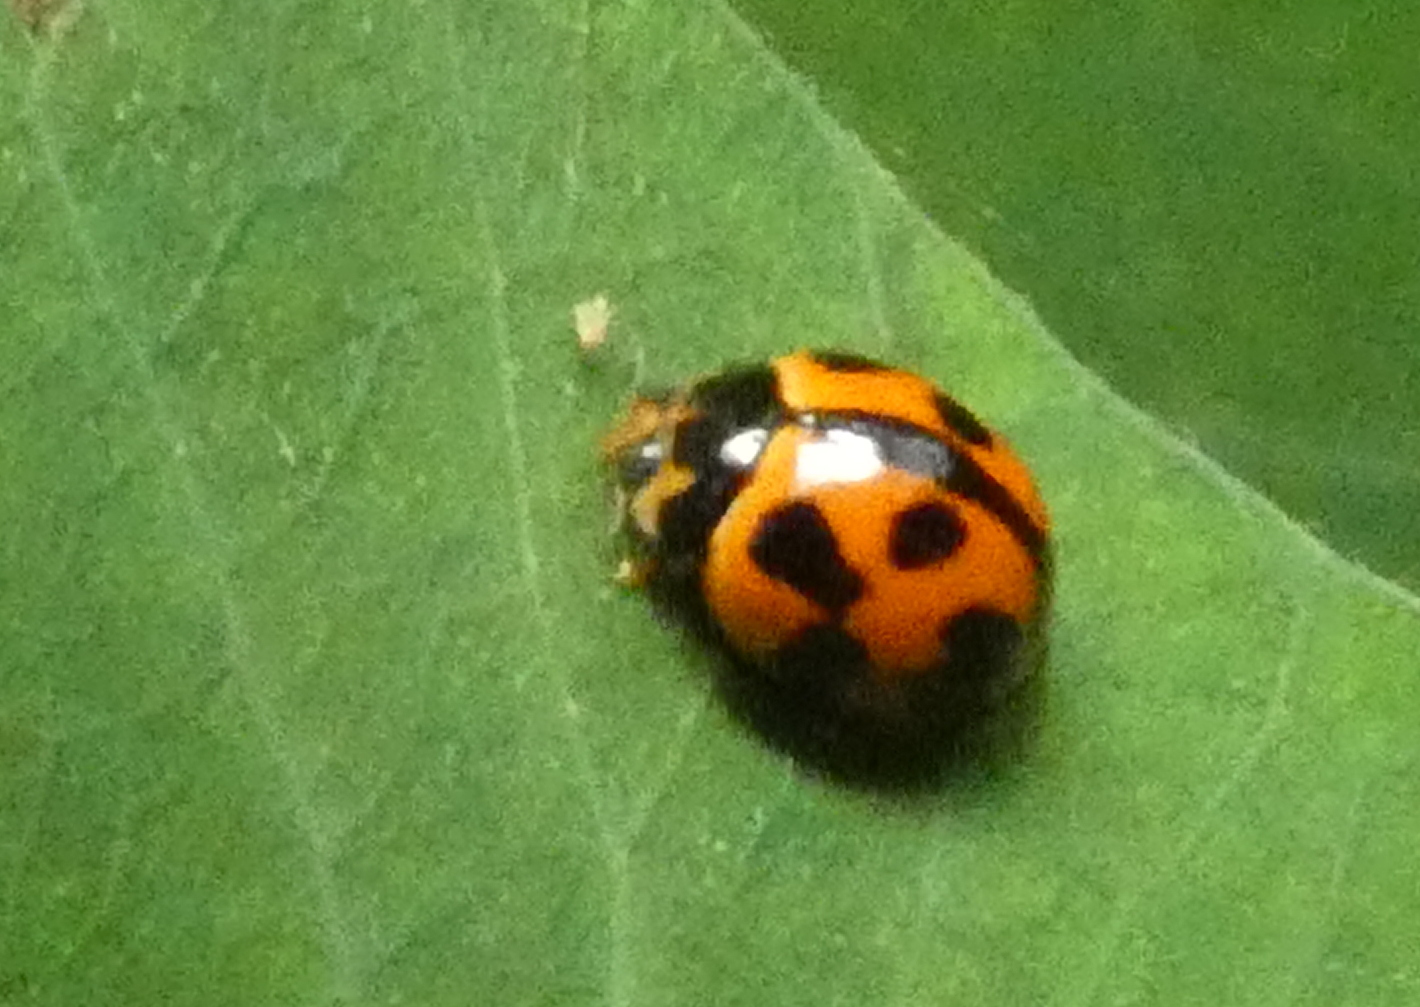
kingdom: Animalia
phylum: Arthropoda
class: Insecta
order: Coleoptera
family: Coccinellidae
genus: Coelophora
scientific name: Coelophora inaequalis
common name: Common australian lady beetle
